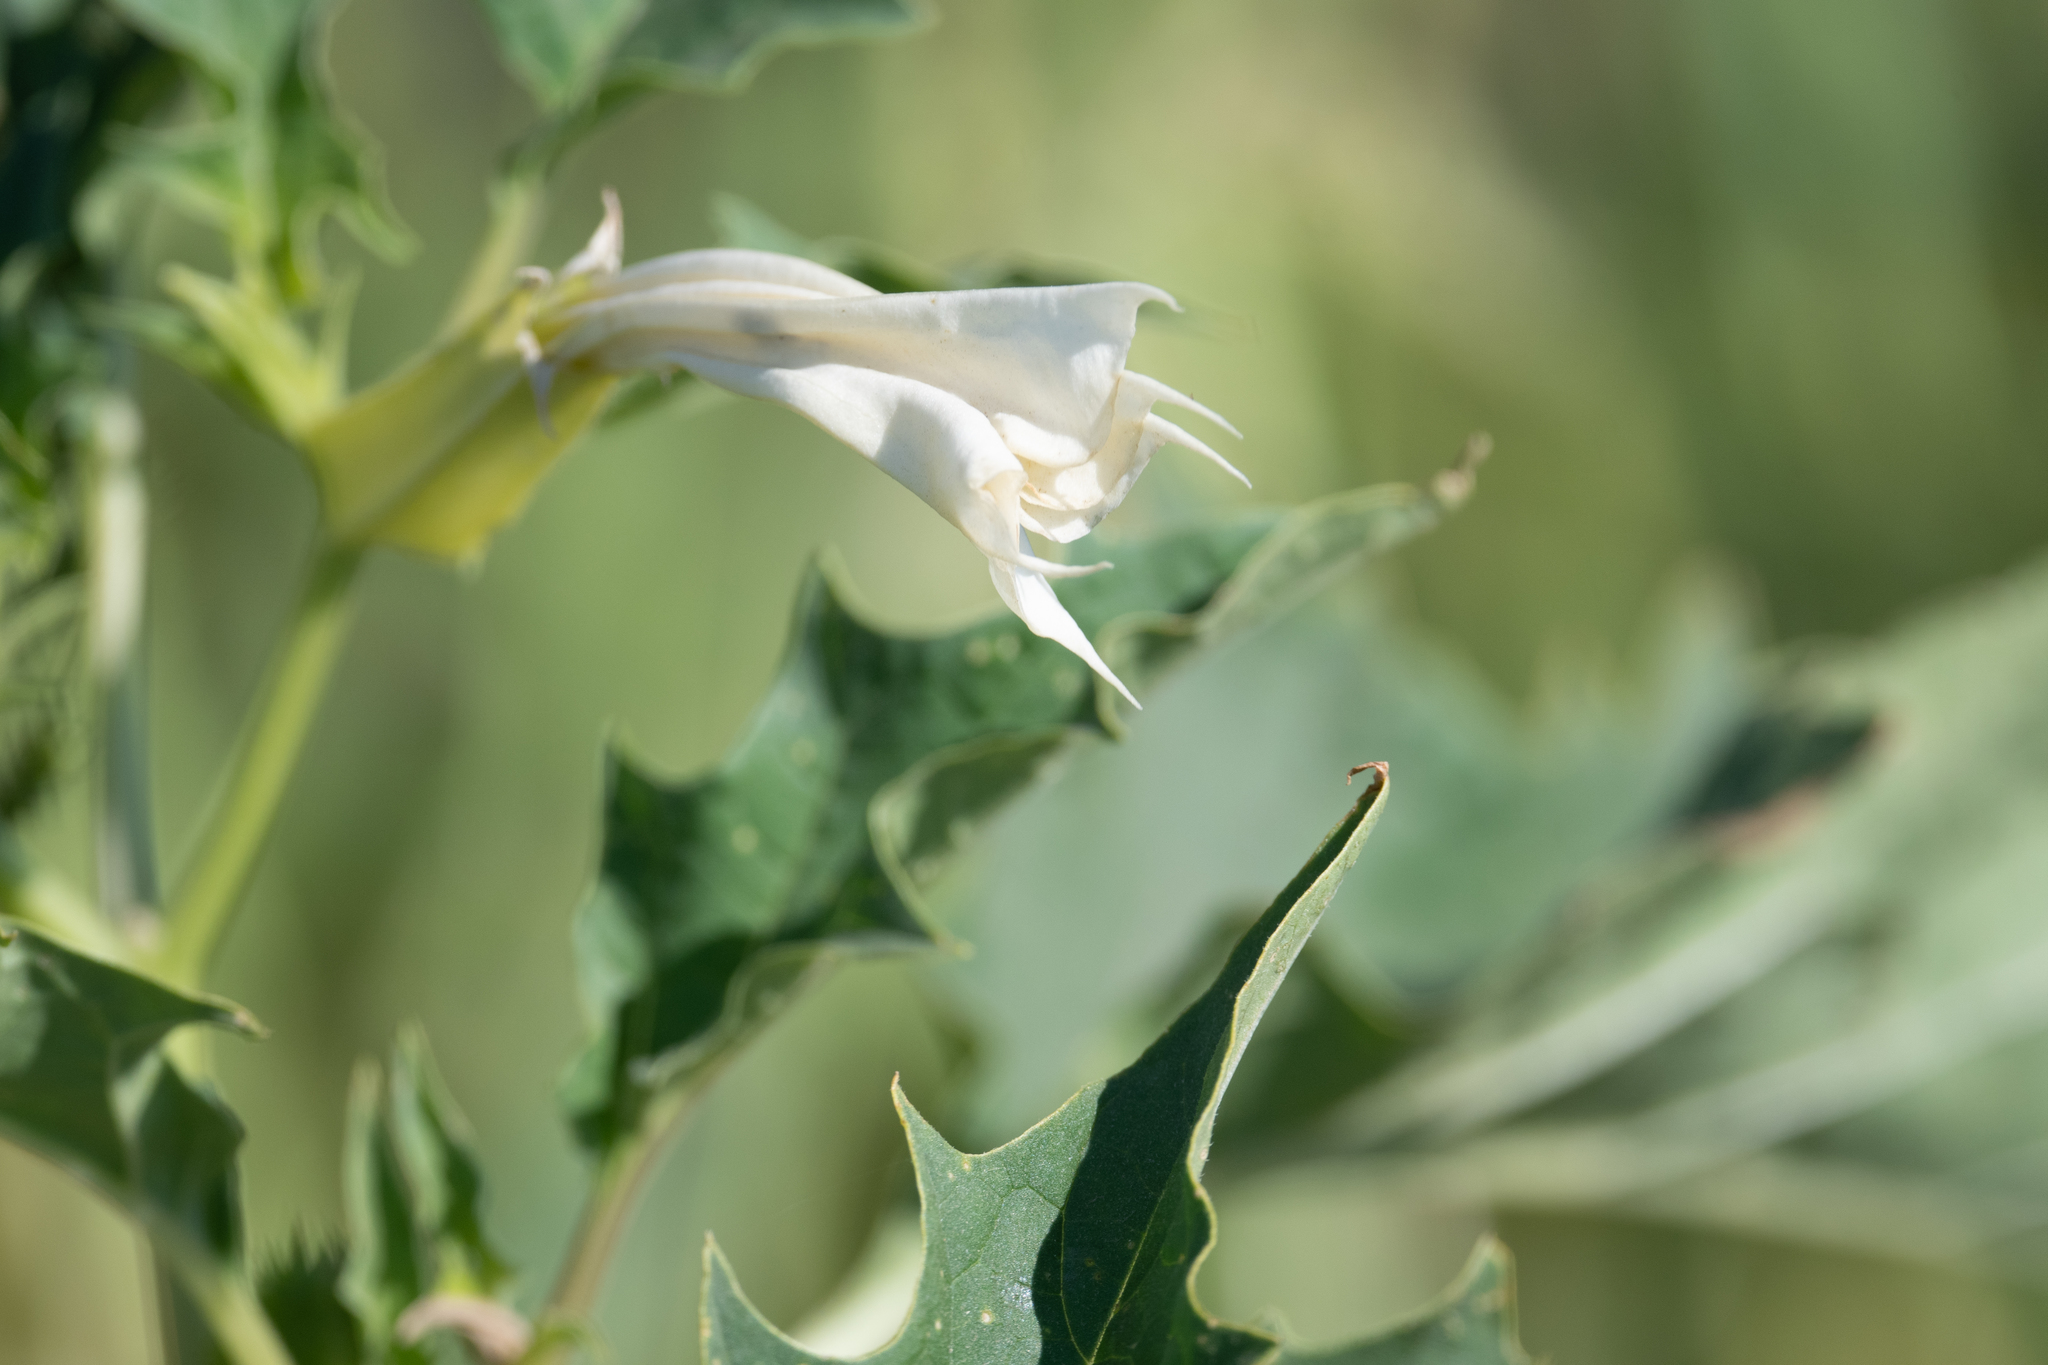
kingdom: Plantae
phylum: Tracheophyta
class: Magnoliopsida
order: Solanales
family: Solanaceae
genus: Datura
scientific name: Datura stramonium
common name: Thorn-apple
